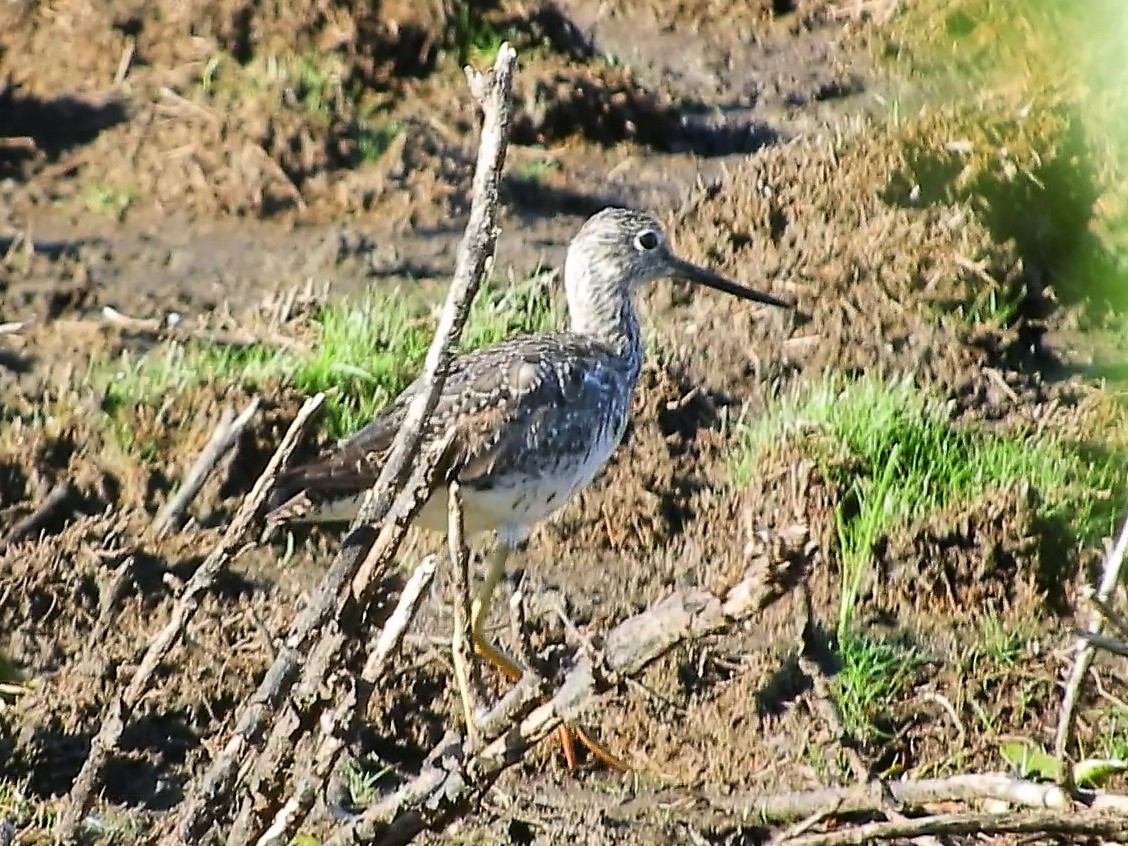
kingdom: Animalia
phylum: Chordata
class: Aves
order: Charadriiformes
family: Scolopacidae
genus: Tringa
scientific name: Tringa melanoleuca
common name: Greater yellowlegs
